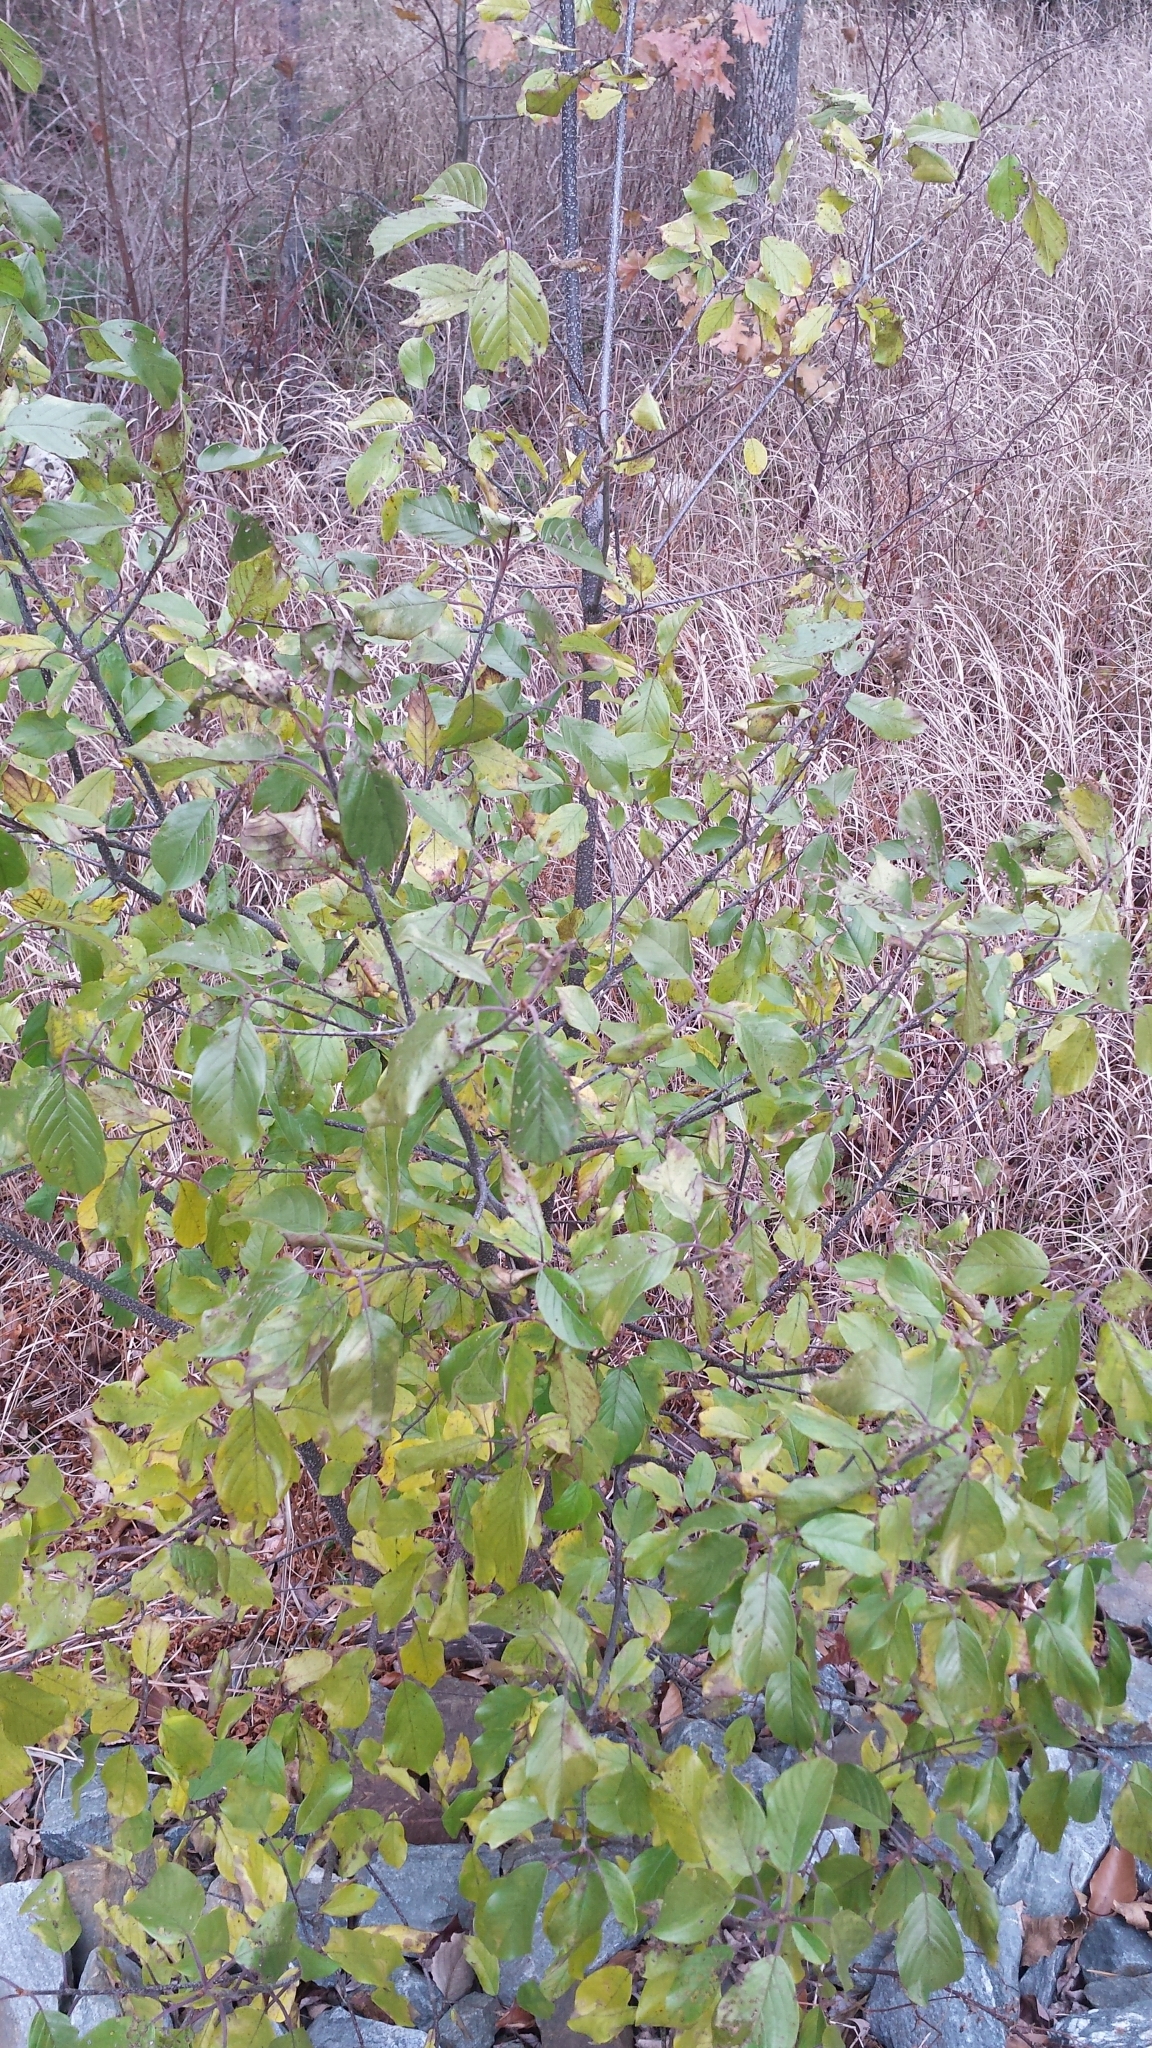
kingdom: Plantae
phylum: Tracheophyta
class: Magnoliopsida
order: Rosales
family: Rhamnaceae
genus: Frangula
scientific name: Frangula alnus
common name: Alder buckthorn
